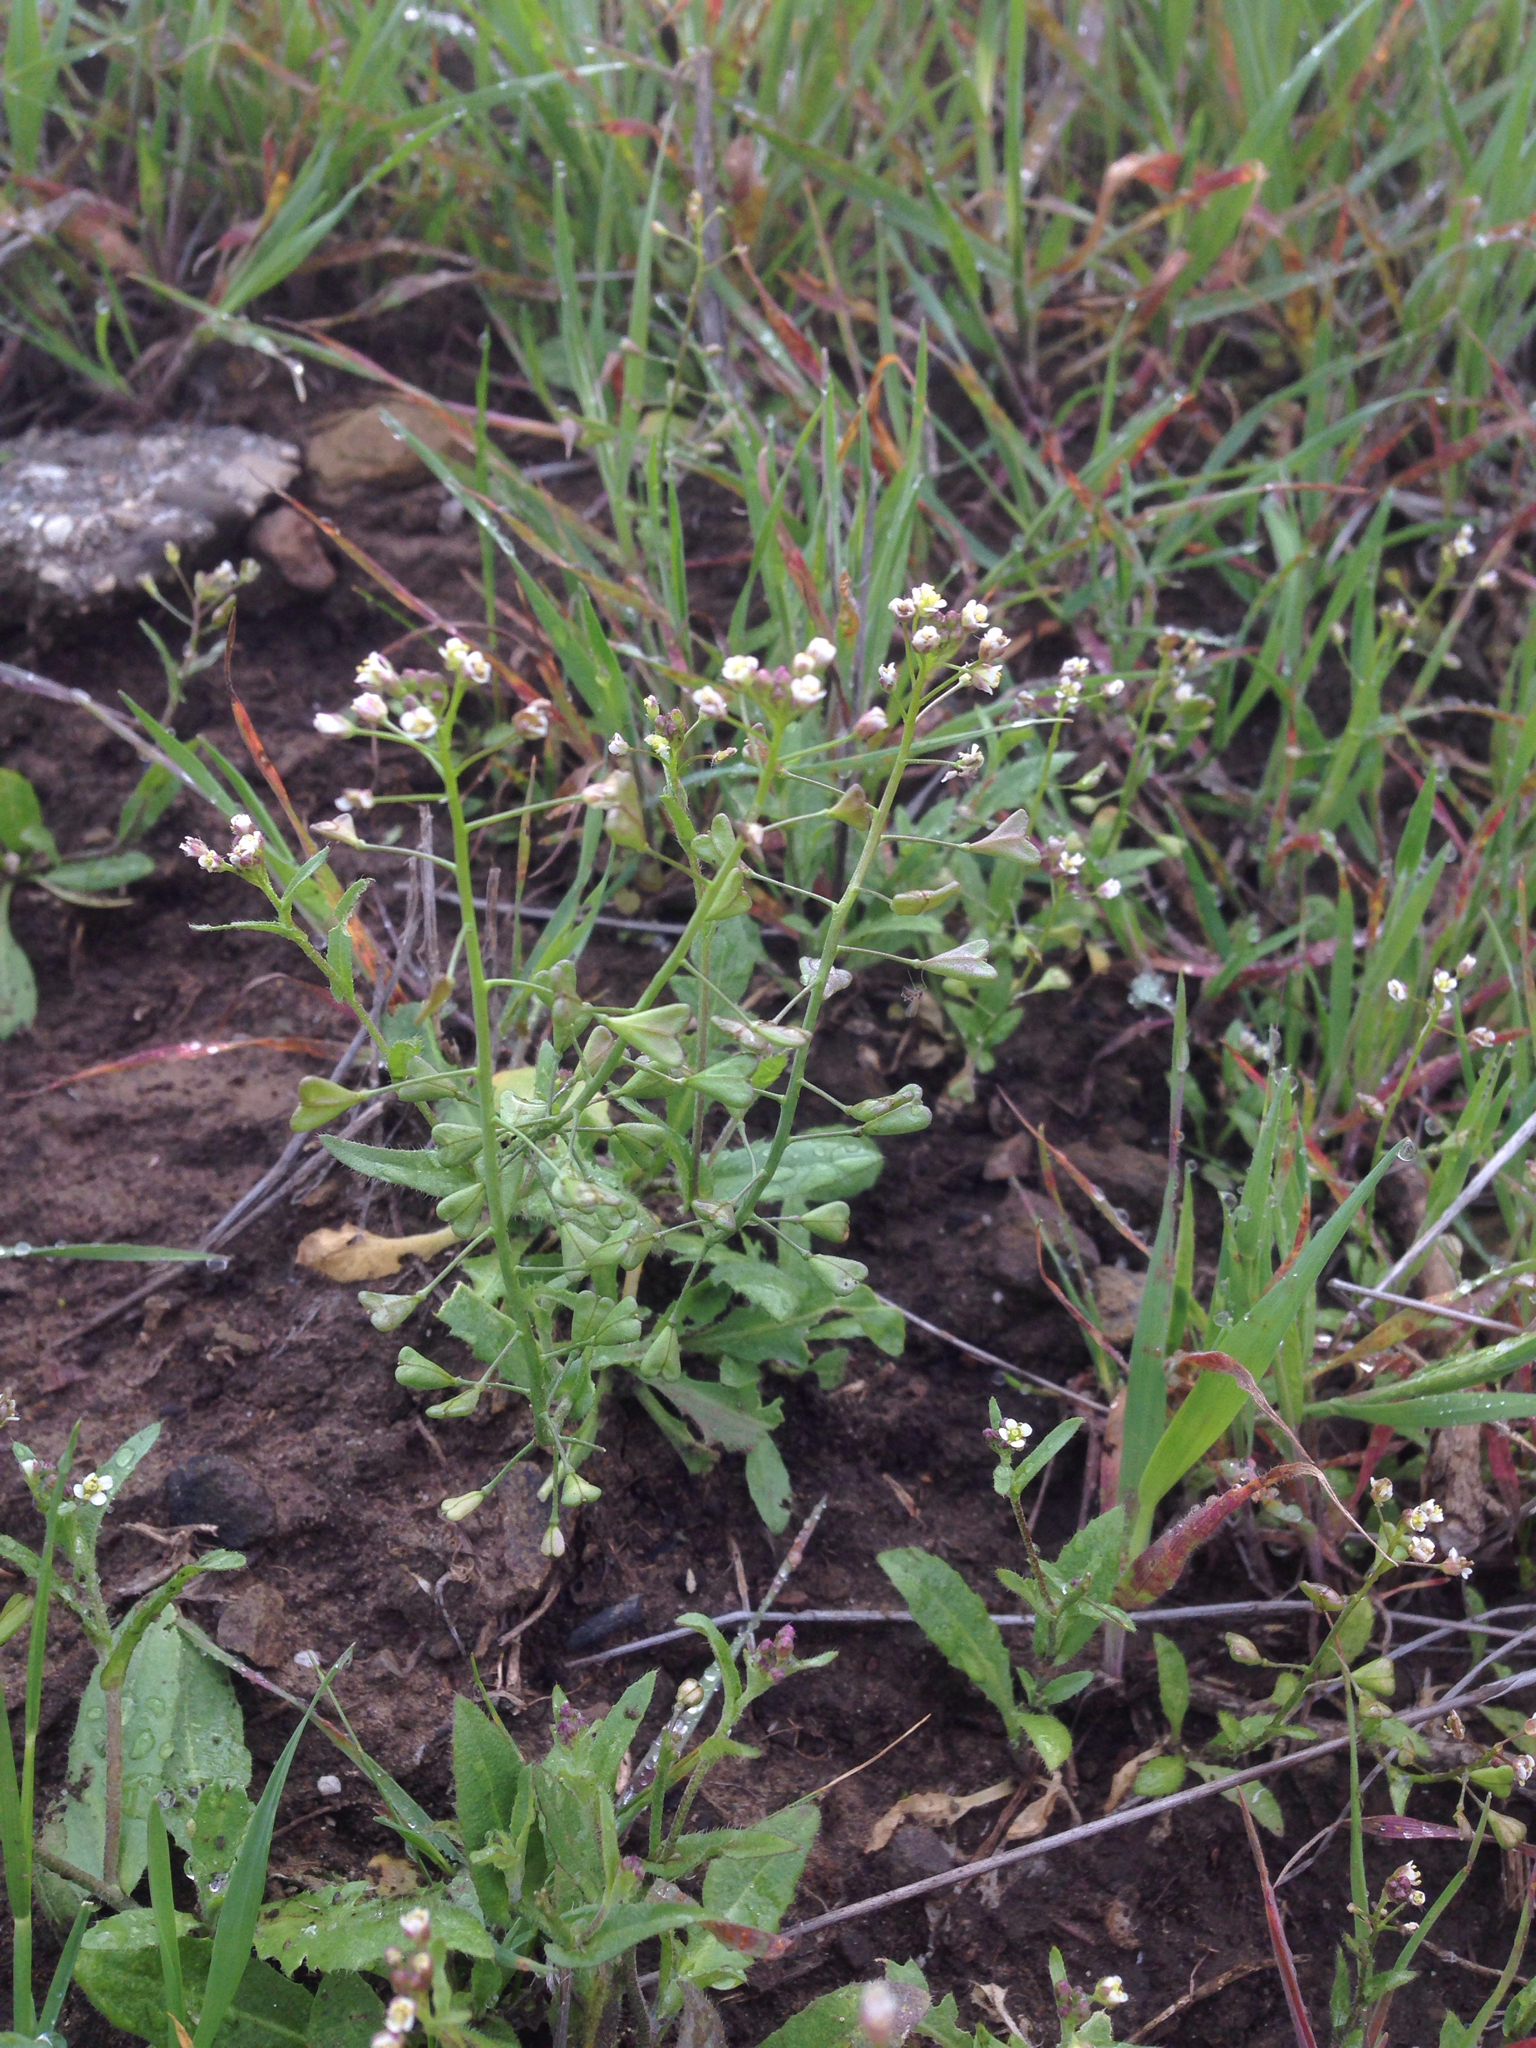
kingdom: Plantae
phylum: Tracheophyta
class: Magnoliopsida
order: Brassicales
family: Brassicaceae
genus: Capsella
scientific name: Capsella bursa-pastoris
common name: Shepherd's purse
